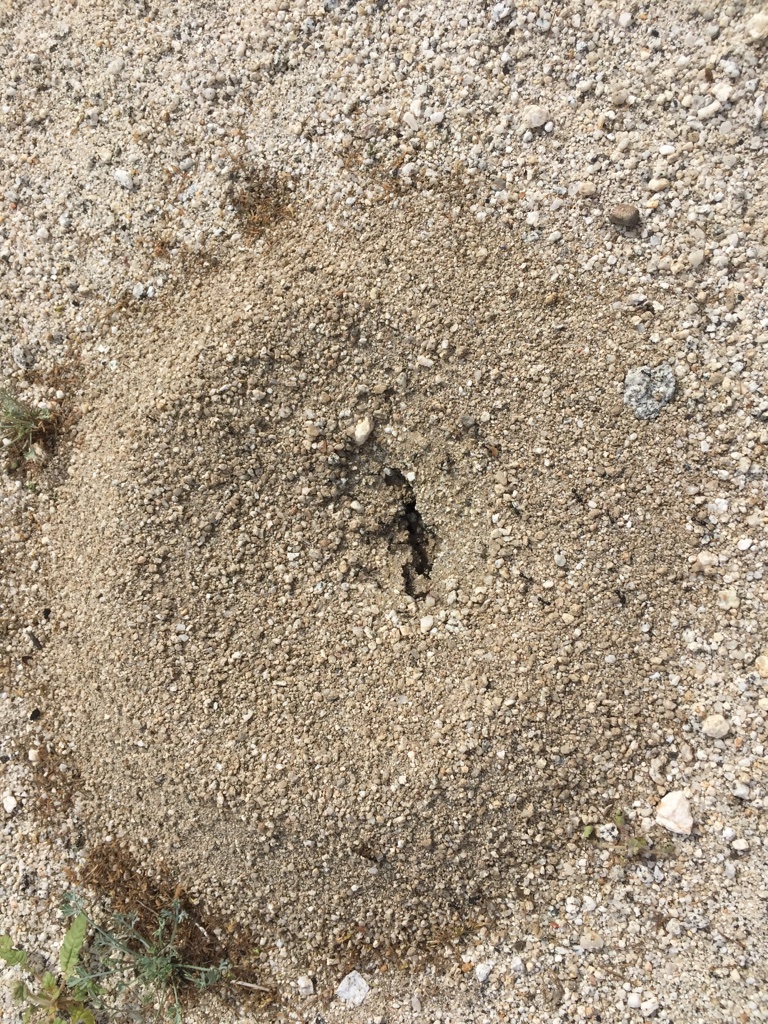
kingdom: Animalia
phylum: Arthropoda
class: Insecta
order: Hymenoptera
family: Formicidae
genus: Messor
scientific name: Messor pergandei
